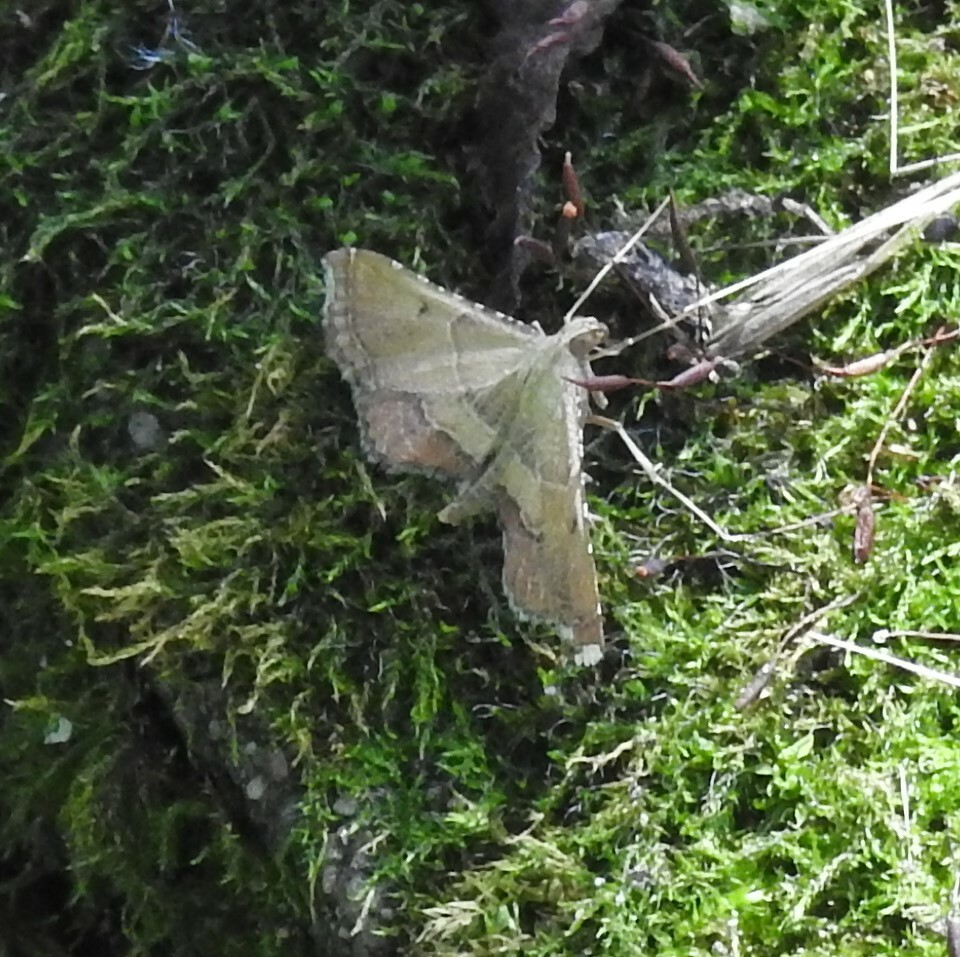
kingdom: Animalia
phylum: Arthropoda
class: Insecta
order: Lepidoptera
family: Pyralidae
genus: Endotricha
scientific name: Endotricha flammealis
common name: Rosy tabby
